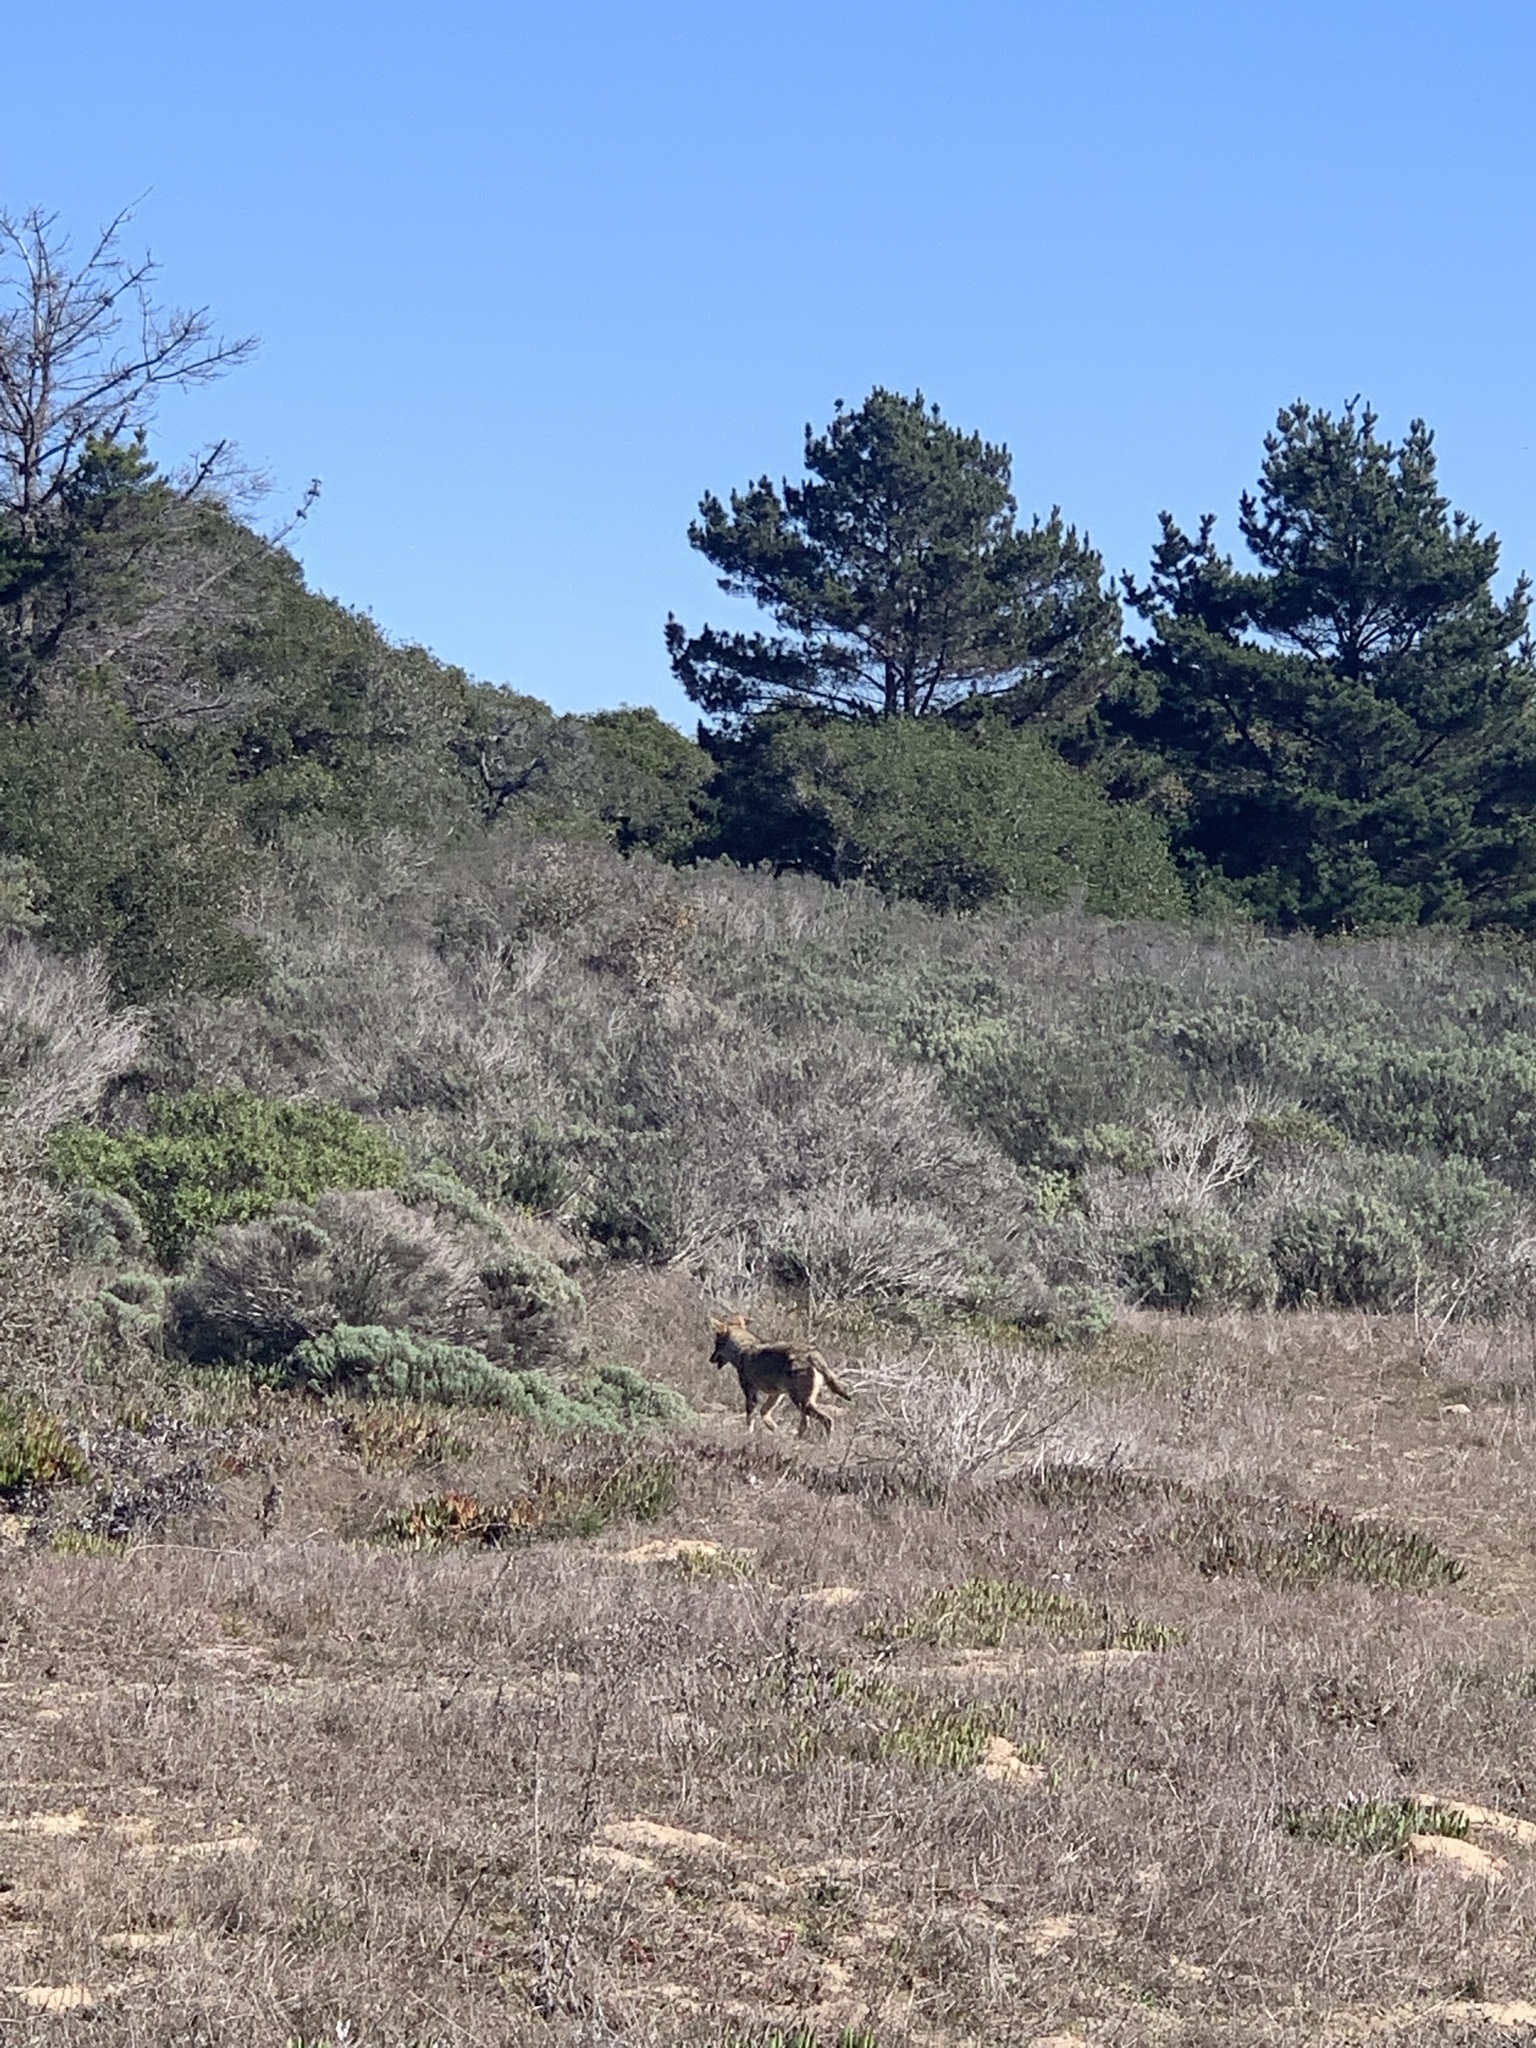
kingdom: Animalia
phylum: Chordata
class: Mammalia
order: Carnivora
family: Canidae
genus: Canis
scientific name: Canis latrans
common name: Coyote
